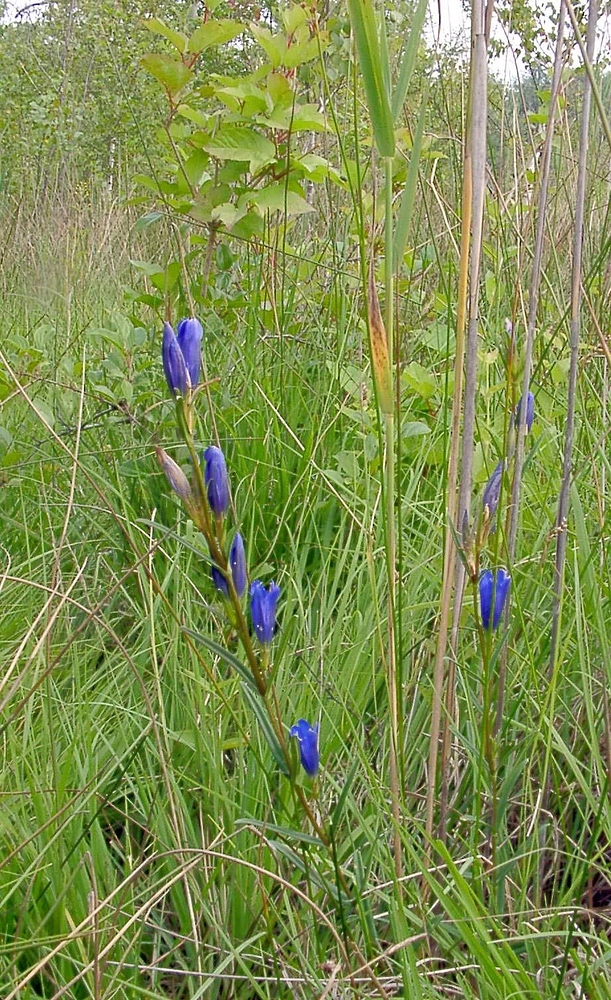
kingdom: Plantae
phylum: Tracheophyta
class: Magnoliopsida
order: Gentianales
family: Gentianaceae
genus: Gentiana
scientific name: Gentiana pneumonanthe
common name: Marsh gentian
